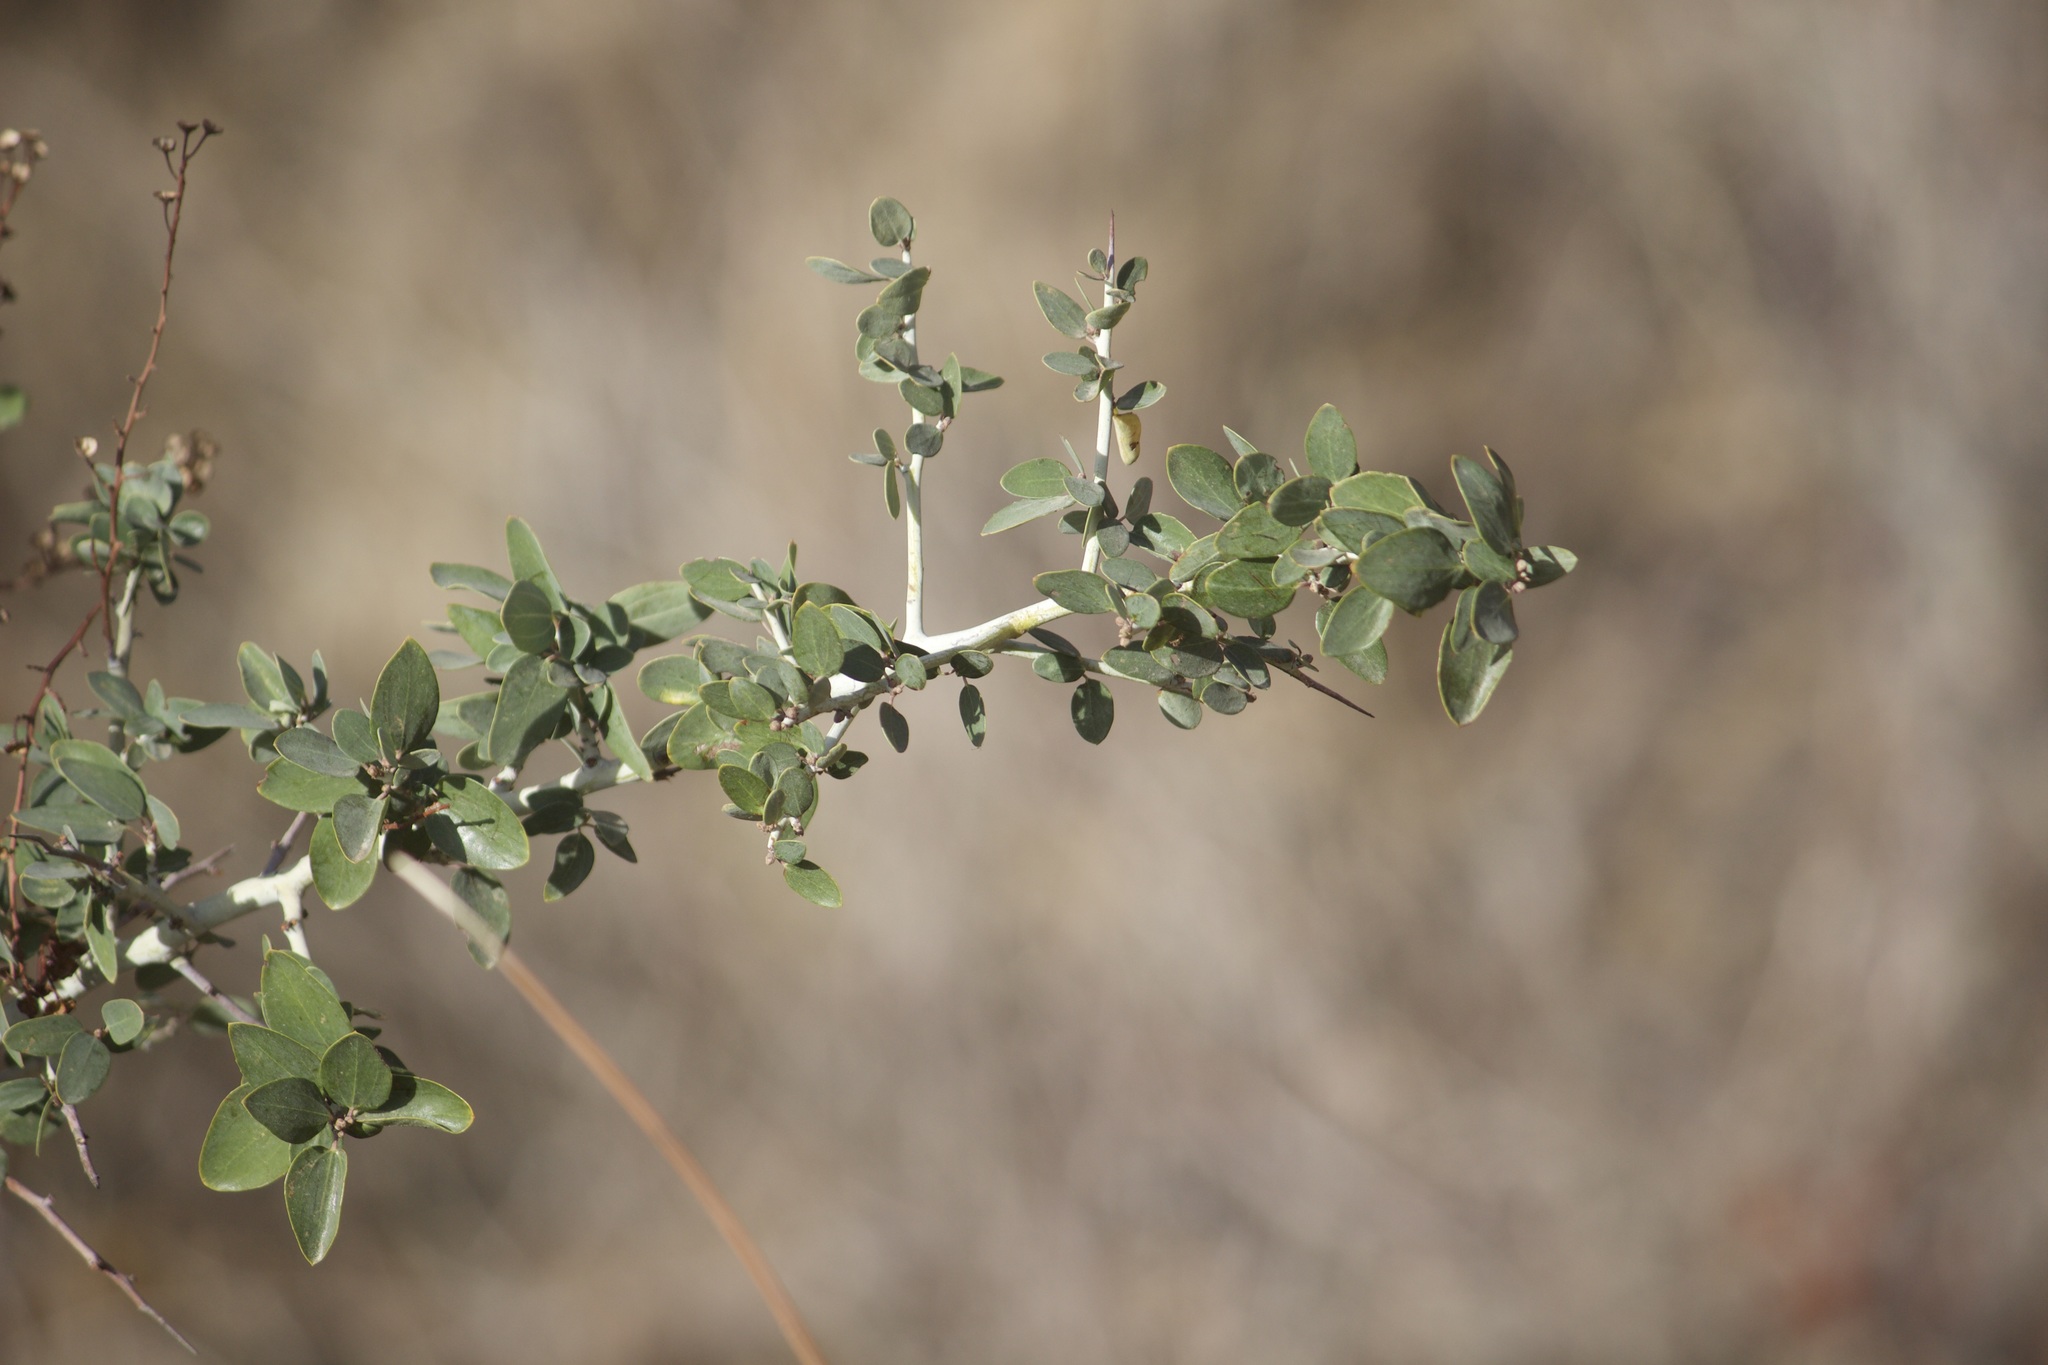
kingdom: Plantae
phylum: Tracheophyta
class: Magnoliopsida
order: Rosales
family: Rhamnaceae
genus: Ceanothus
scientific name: Ceanothus leucodermis
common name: Chaparral whitethorn
